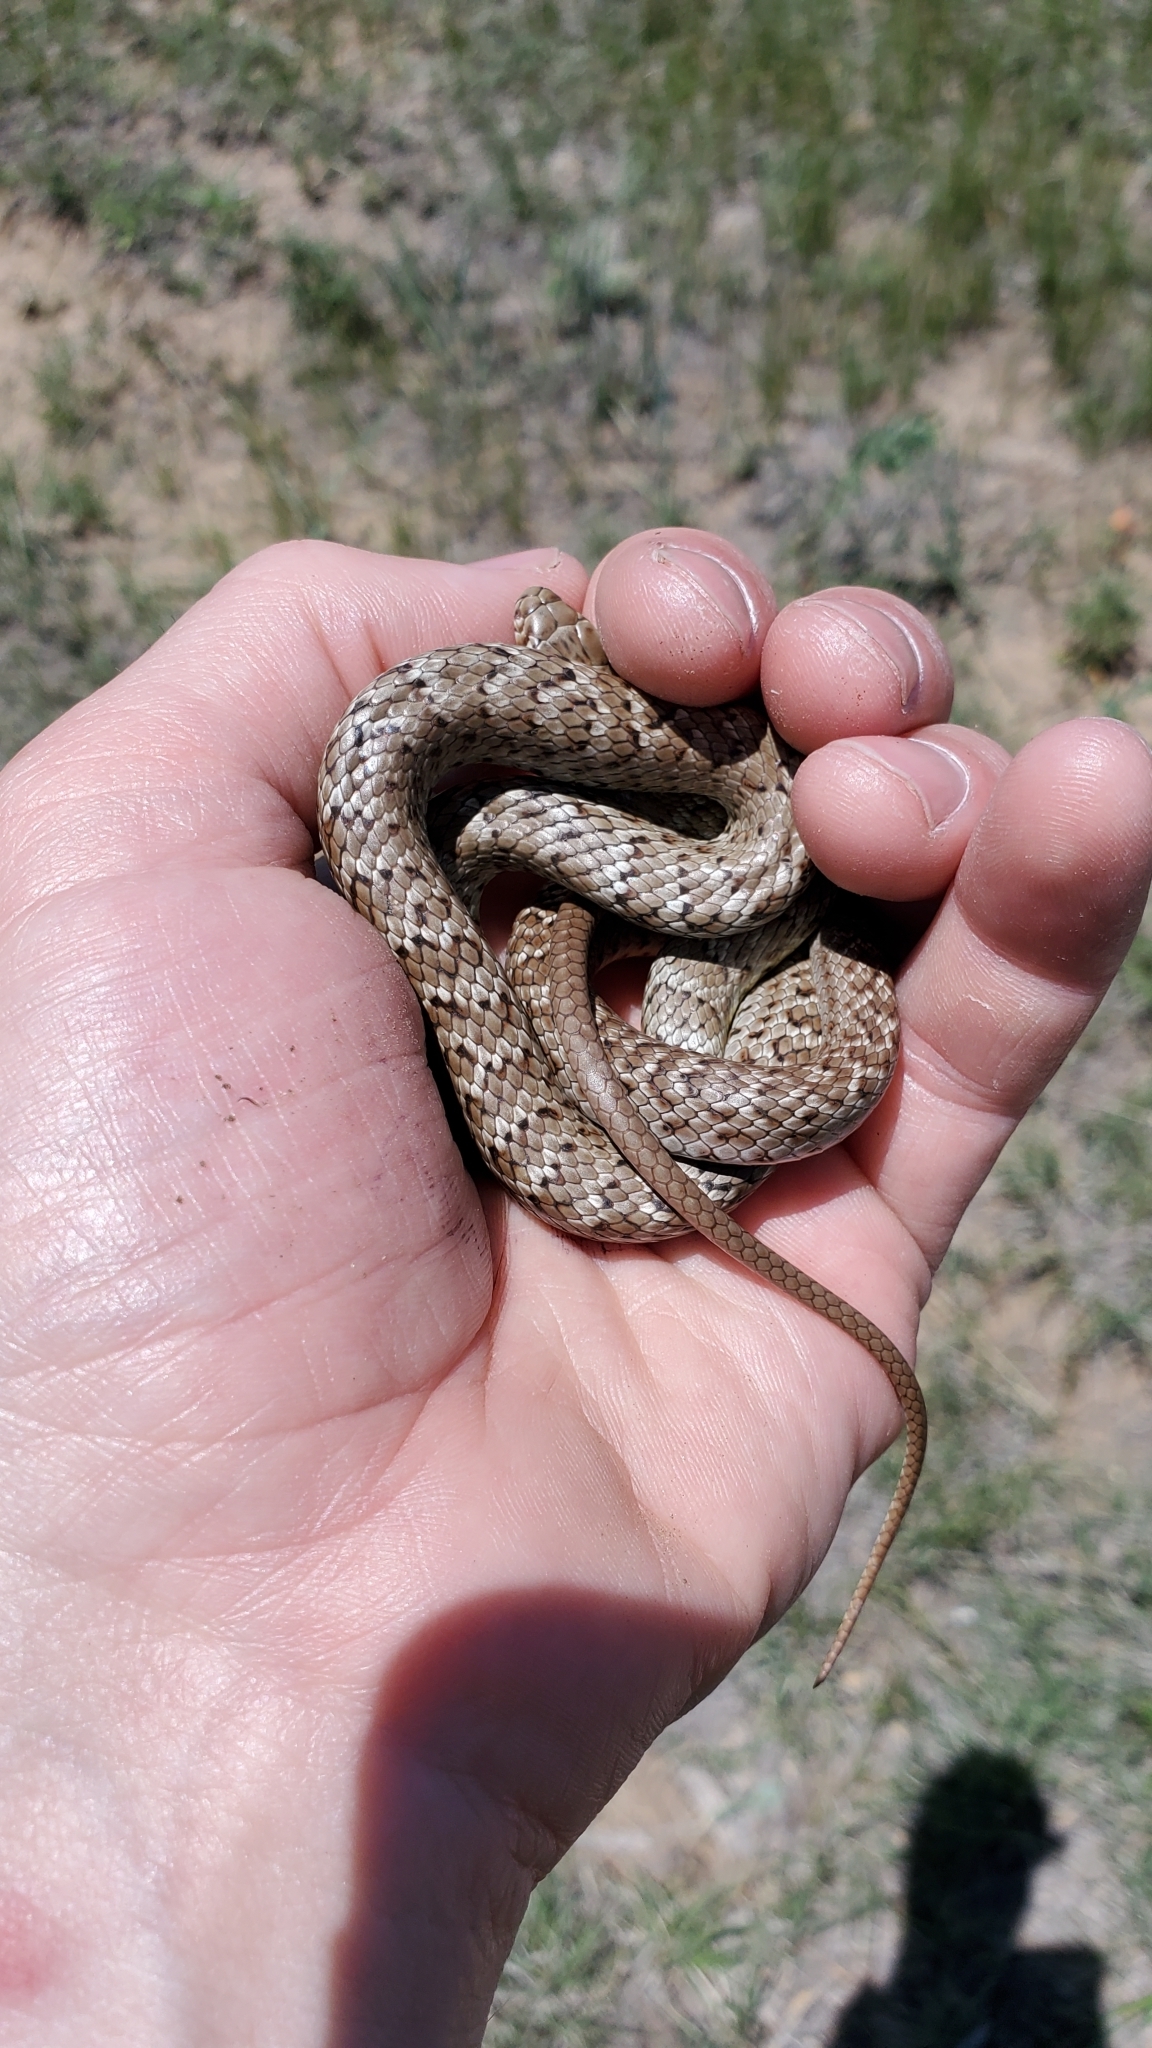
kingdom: Animalia
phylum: Chordata
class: Squamata
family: Colubridae
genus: Coluber
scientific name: Coluber constrictor
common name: Eastern racer
